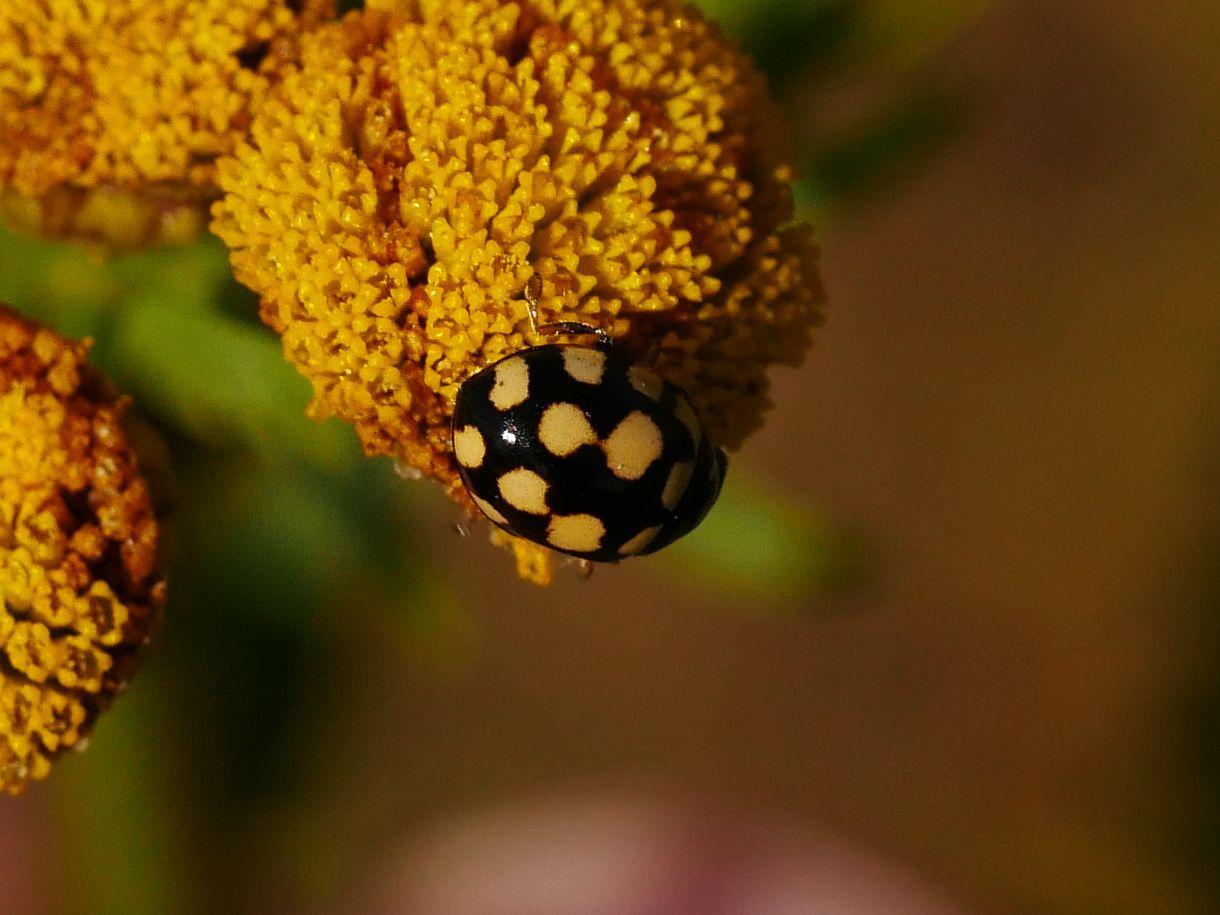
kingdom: Animalia
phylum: Arthropoda
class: Insecta
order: Coleoptera
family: Coccinellidae
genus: Coccinula
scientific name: Coccinula quatuordecimpustulata
